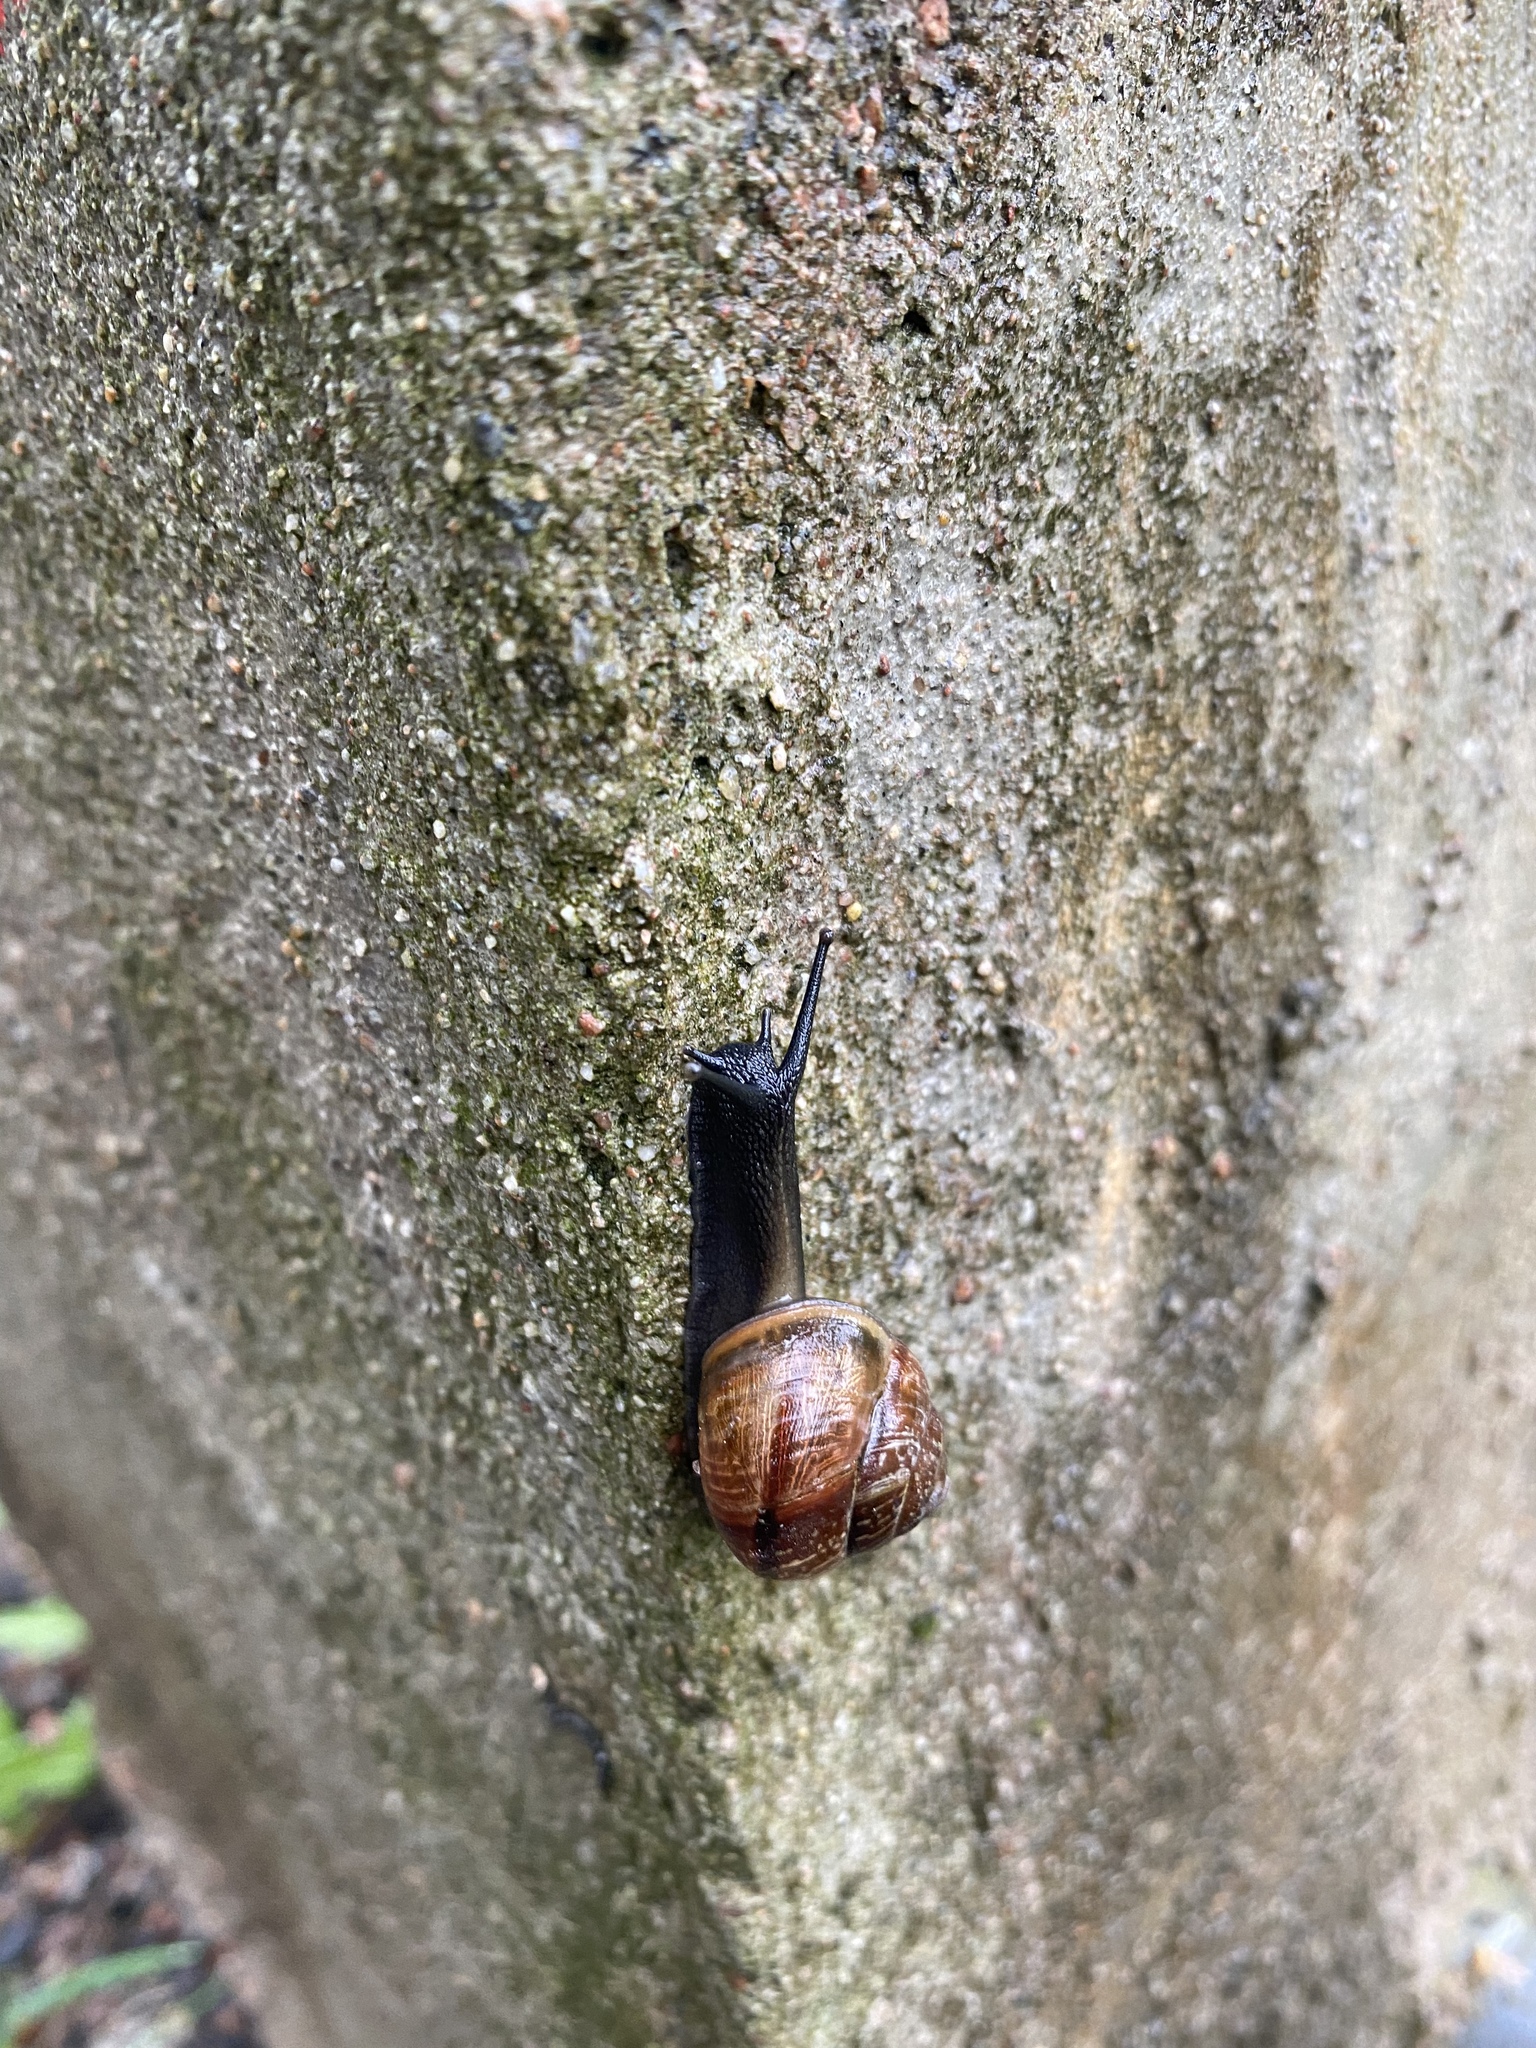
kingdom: Animalia
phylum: Mollusca
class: Gastropoda
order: Stylommatophora
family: Helicidae
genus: Arianta
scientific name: Arianta arbustorum
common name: Copse snail
